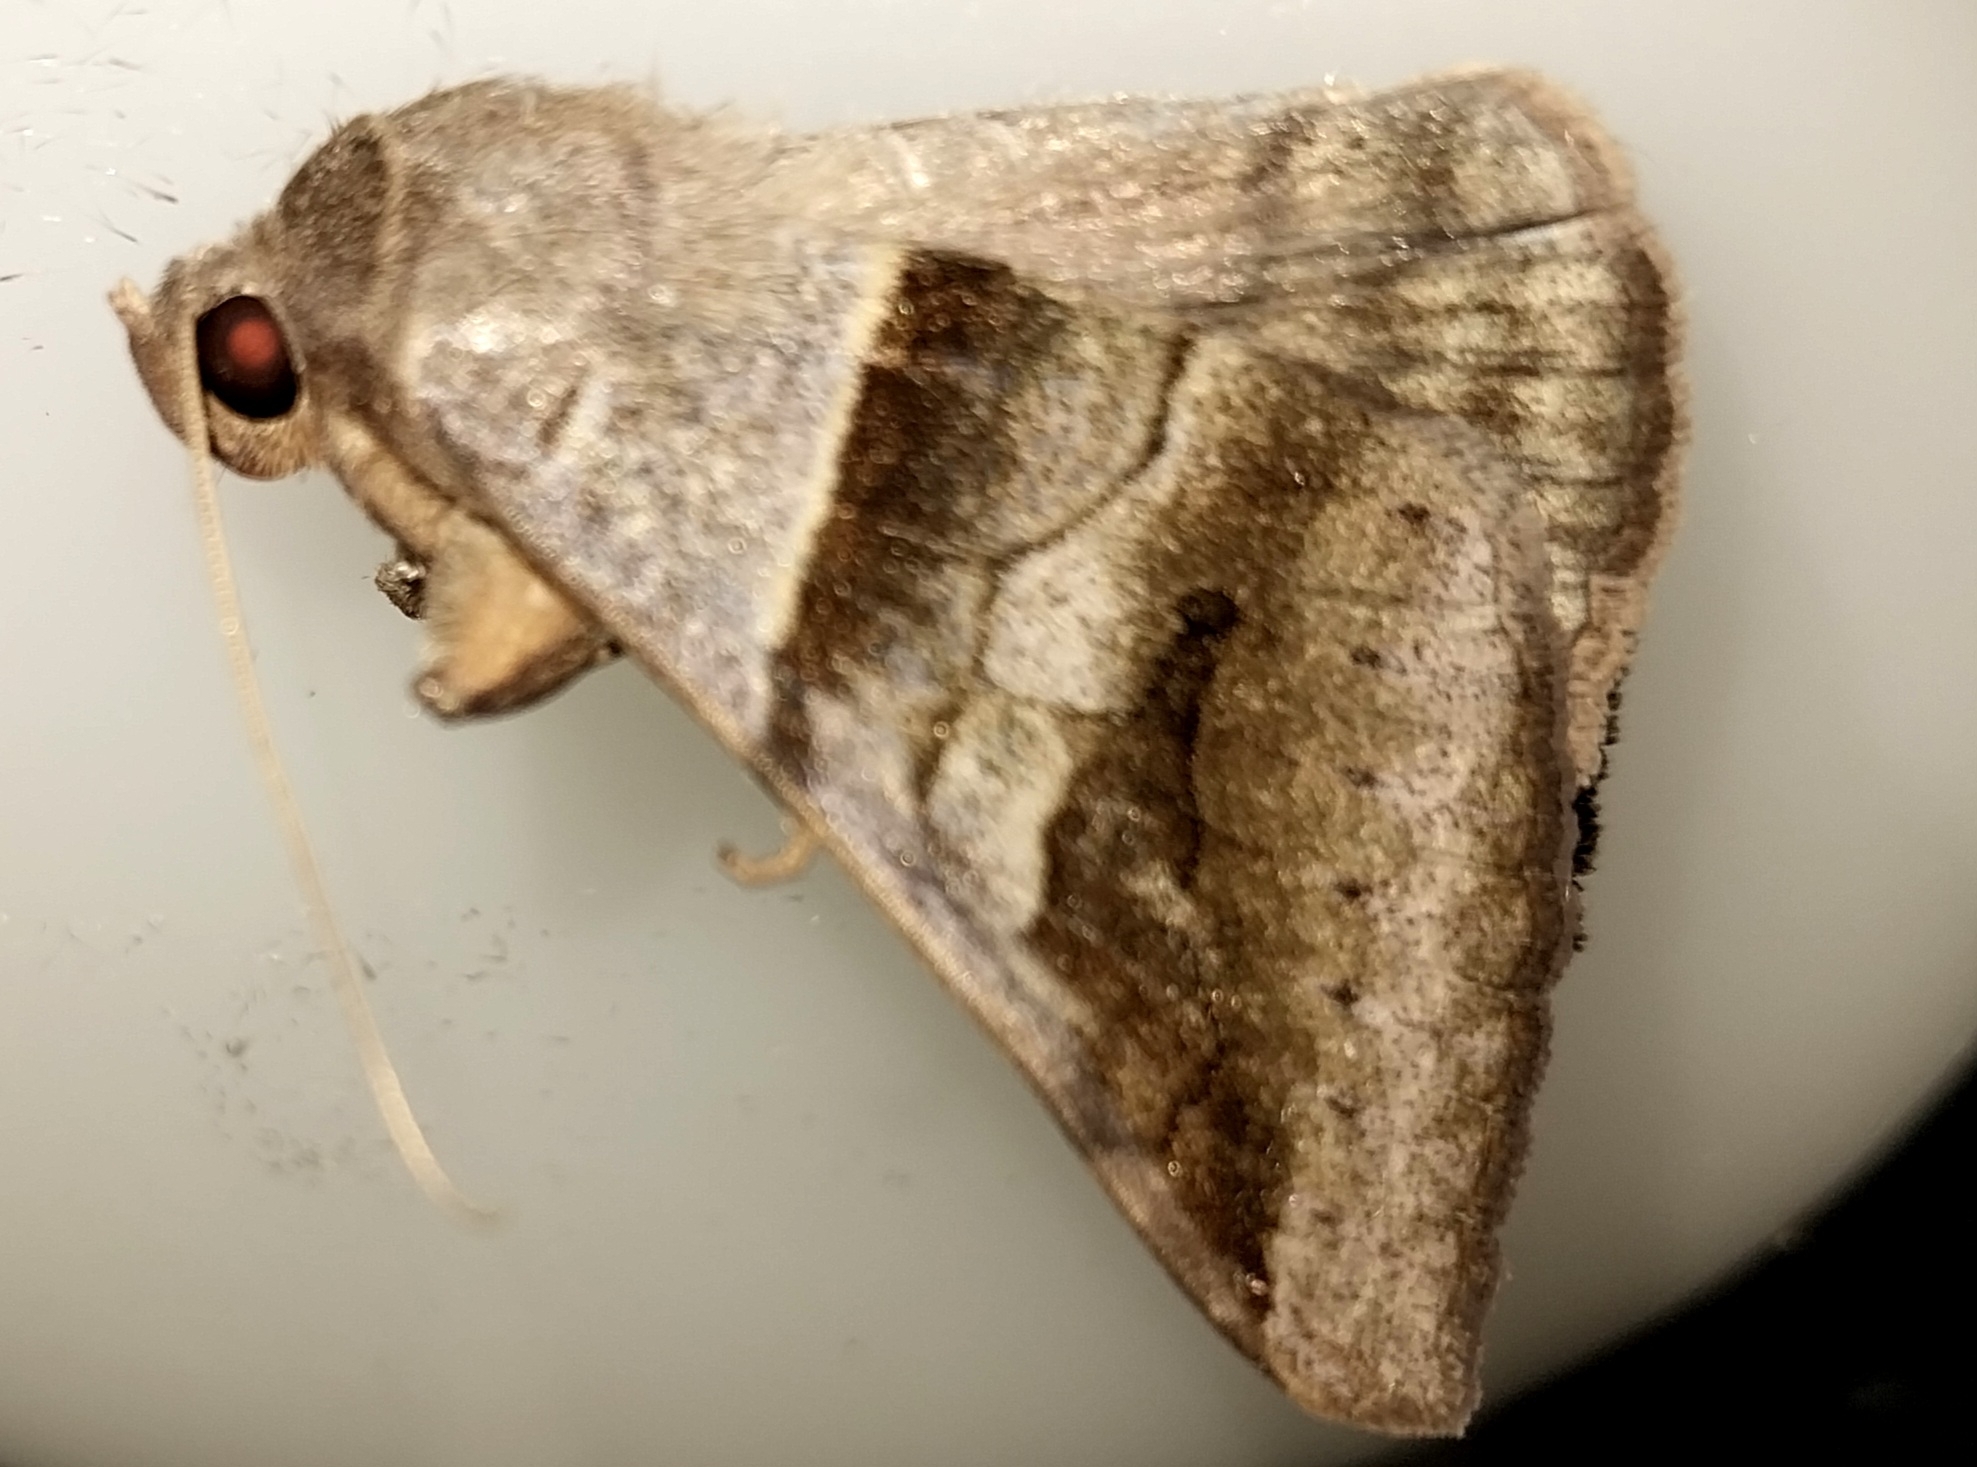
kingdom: Animalia
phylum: Arthropoda
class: Insecta
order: Lepidoptera
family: Erebidae
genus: Mocis
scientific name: Mocis trifasciata
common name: Triple-barred
